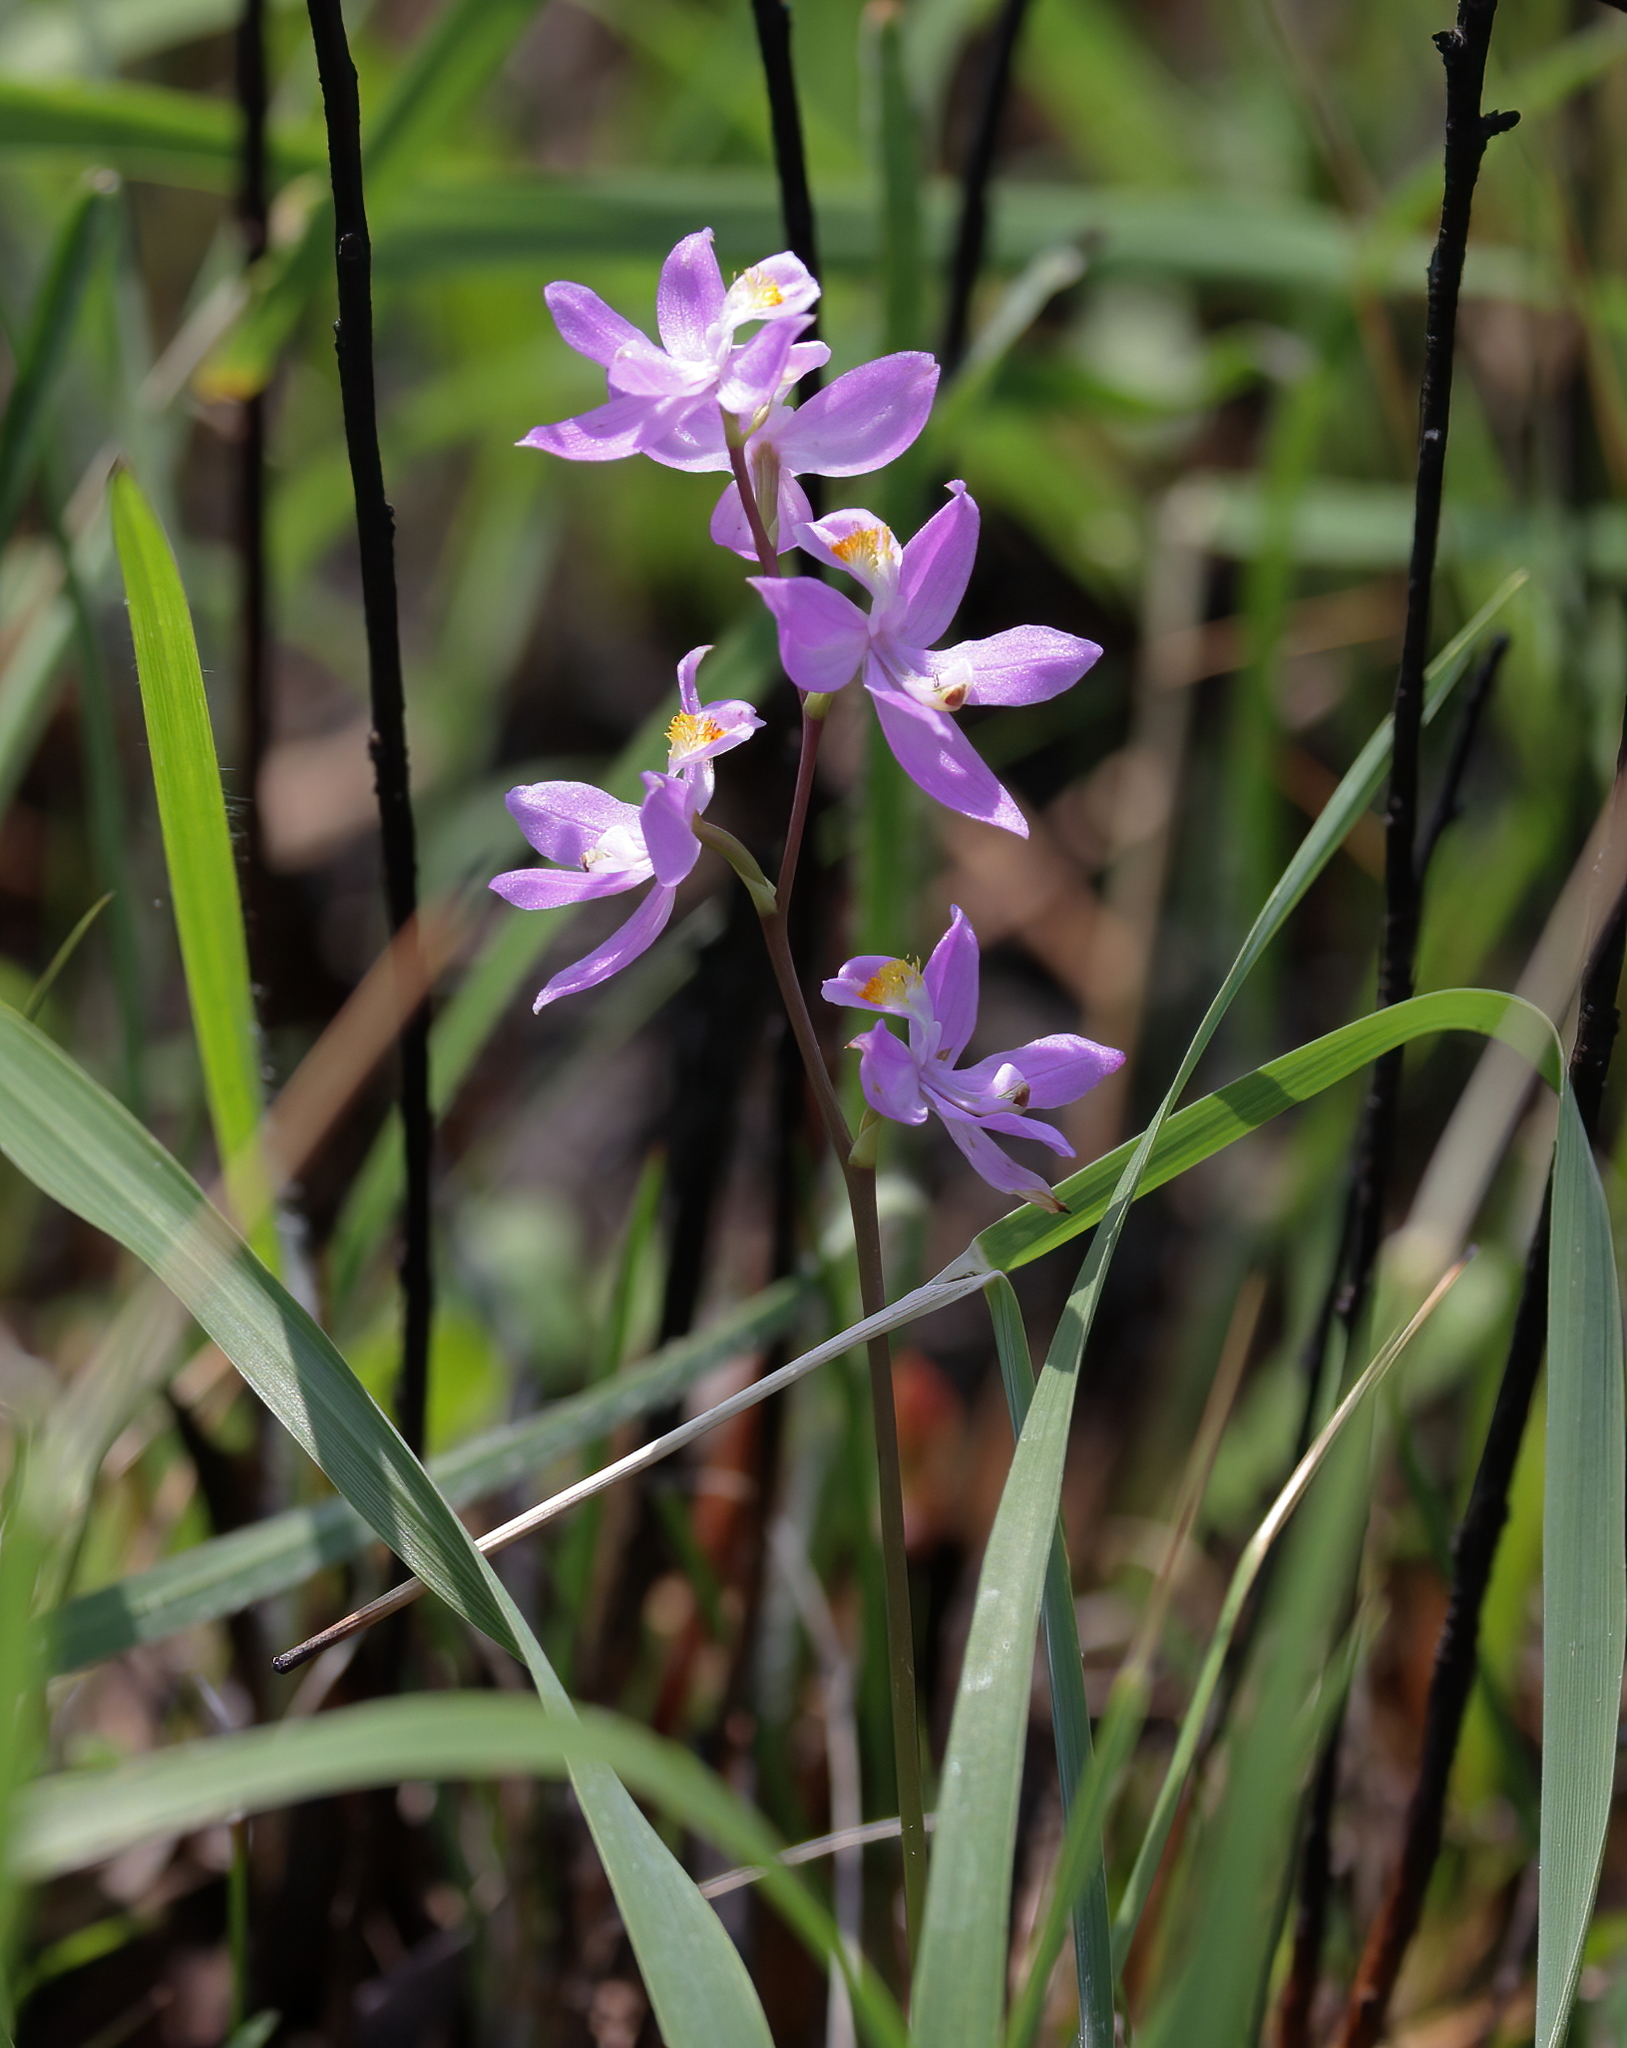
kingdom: Plantae
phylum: Tracheophyta
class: Liliopsida
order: Asparagales
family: Orchidaceae
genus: Calopogon
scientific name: Calopogon multiflorus
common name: Many-flowered grass-pink orchid
